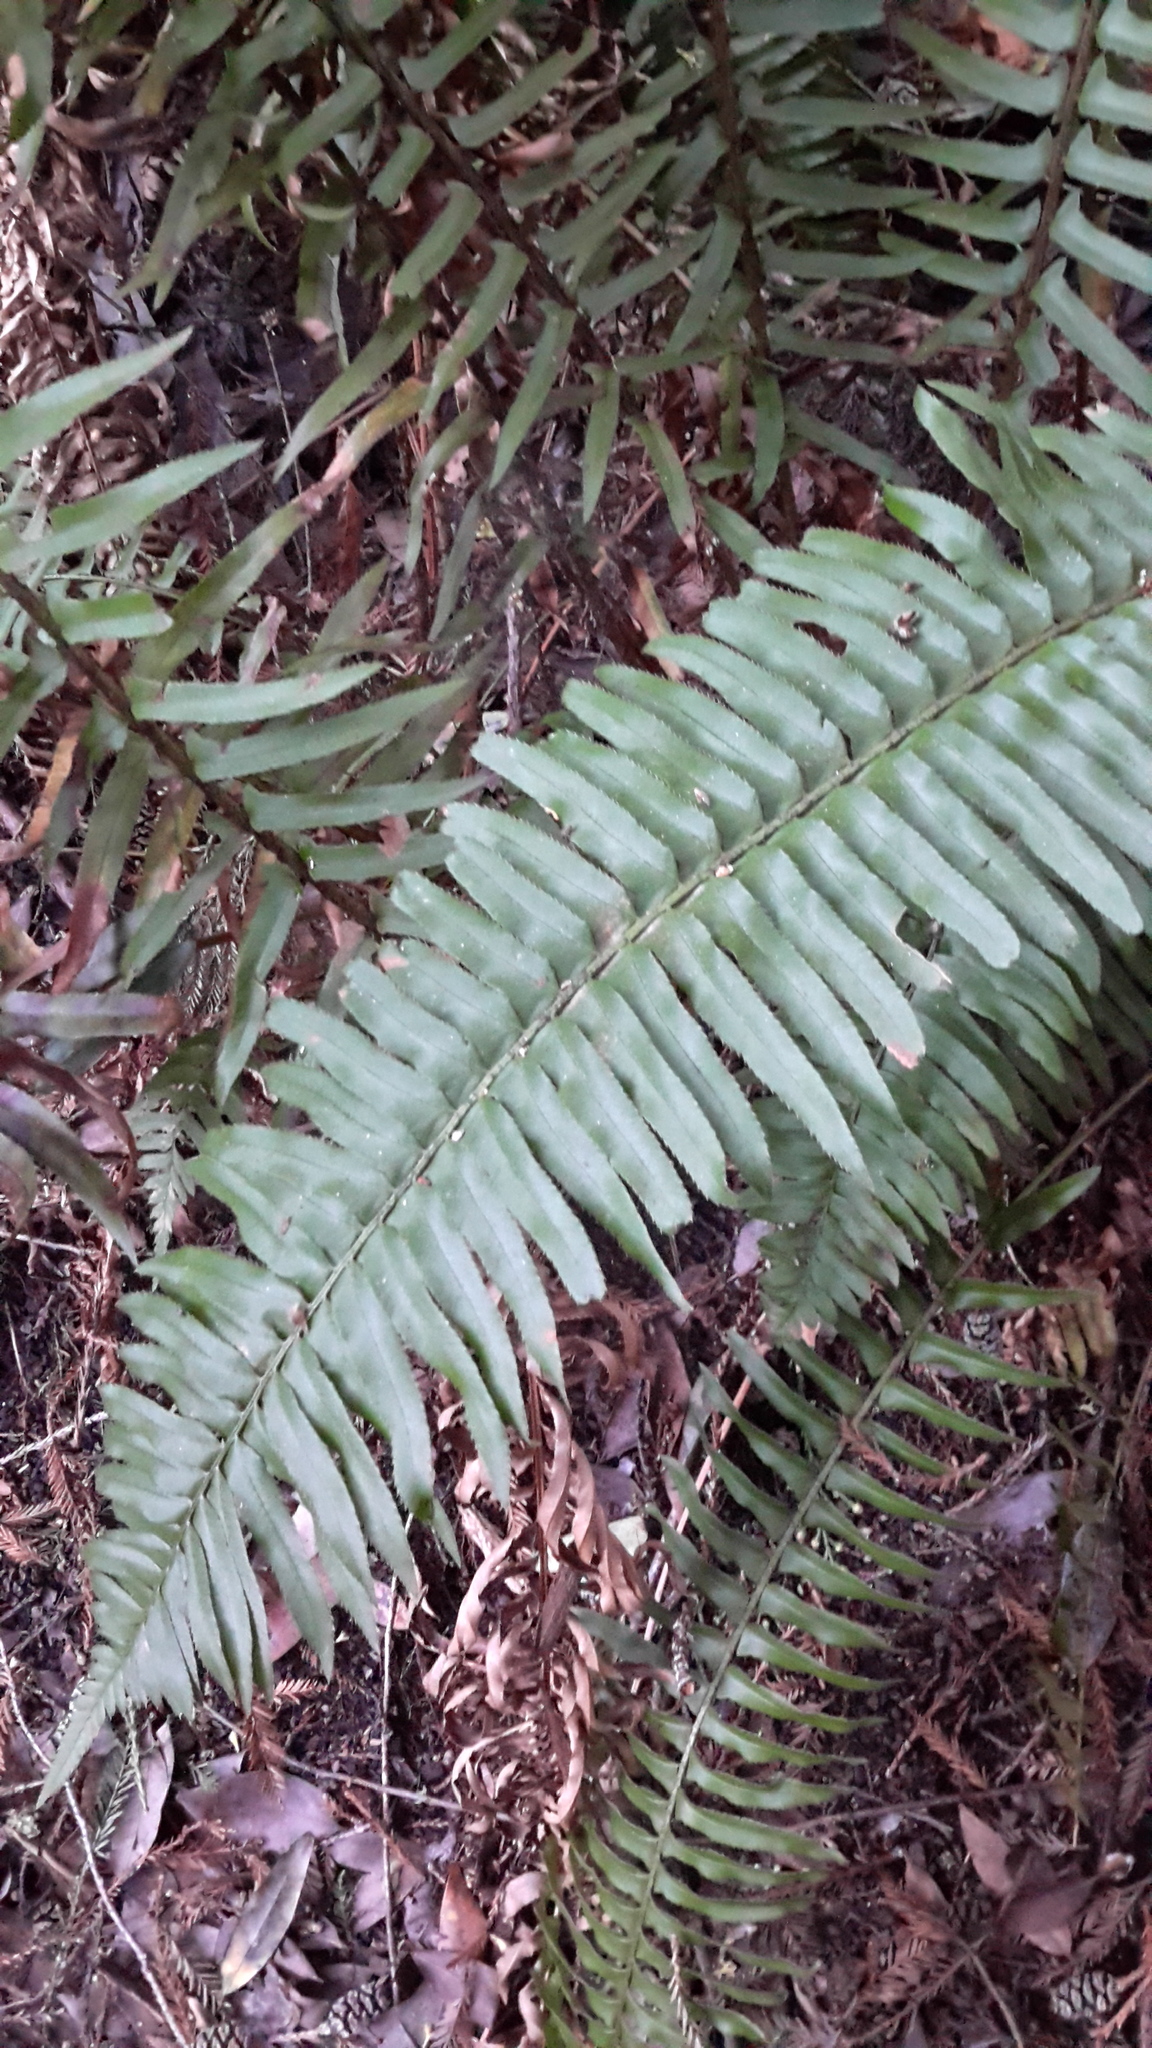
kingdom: Plantae
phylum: Tracheophyta
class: Polypodiopsida
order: Polypodiales
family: Dryopteridaceae
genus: Polystichum
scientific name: Polystichum munitum
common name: Western sword-fern
